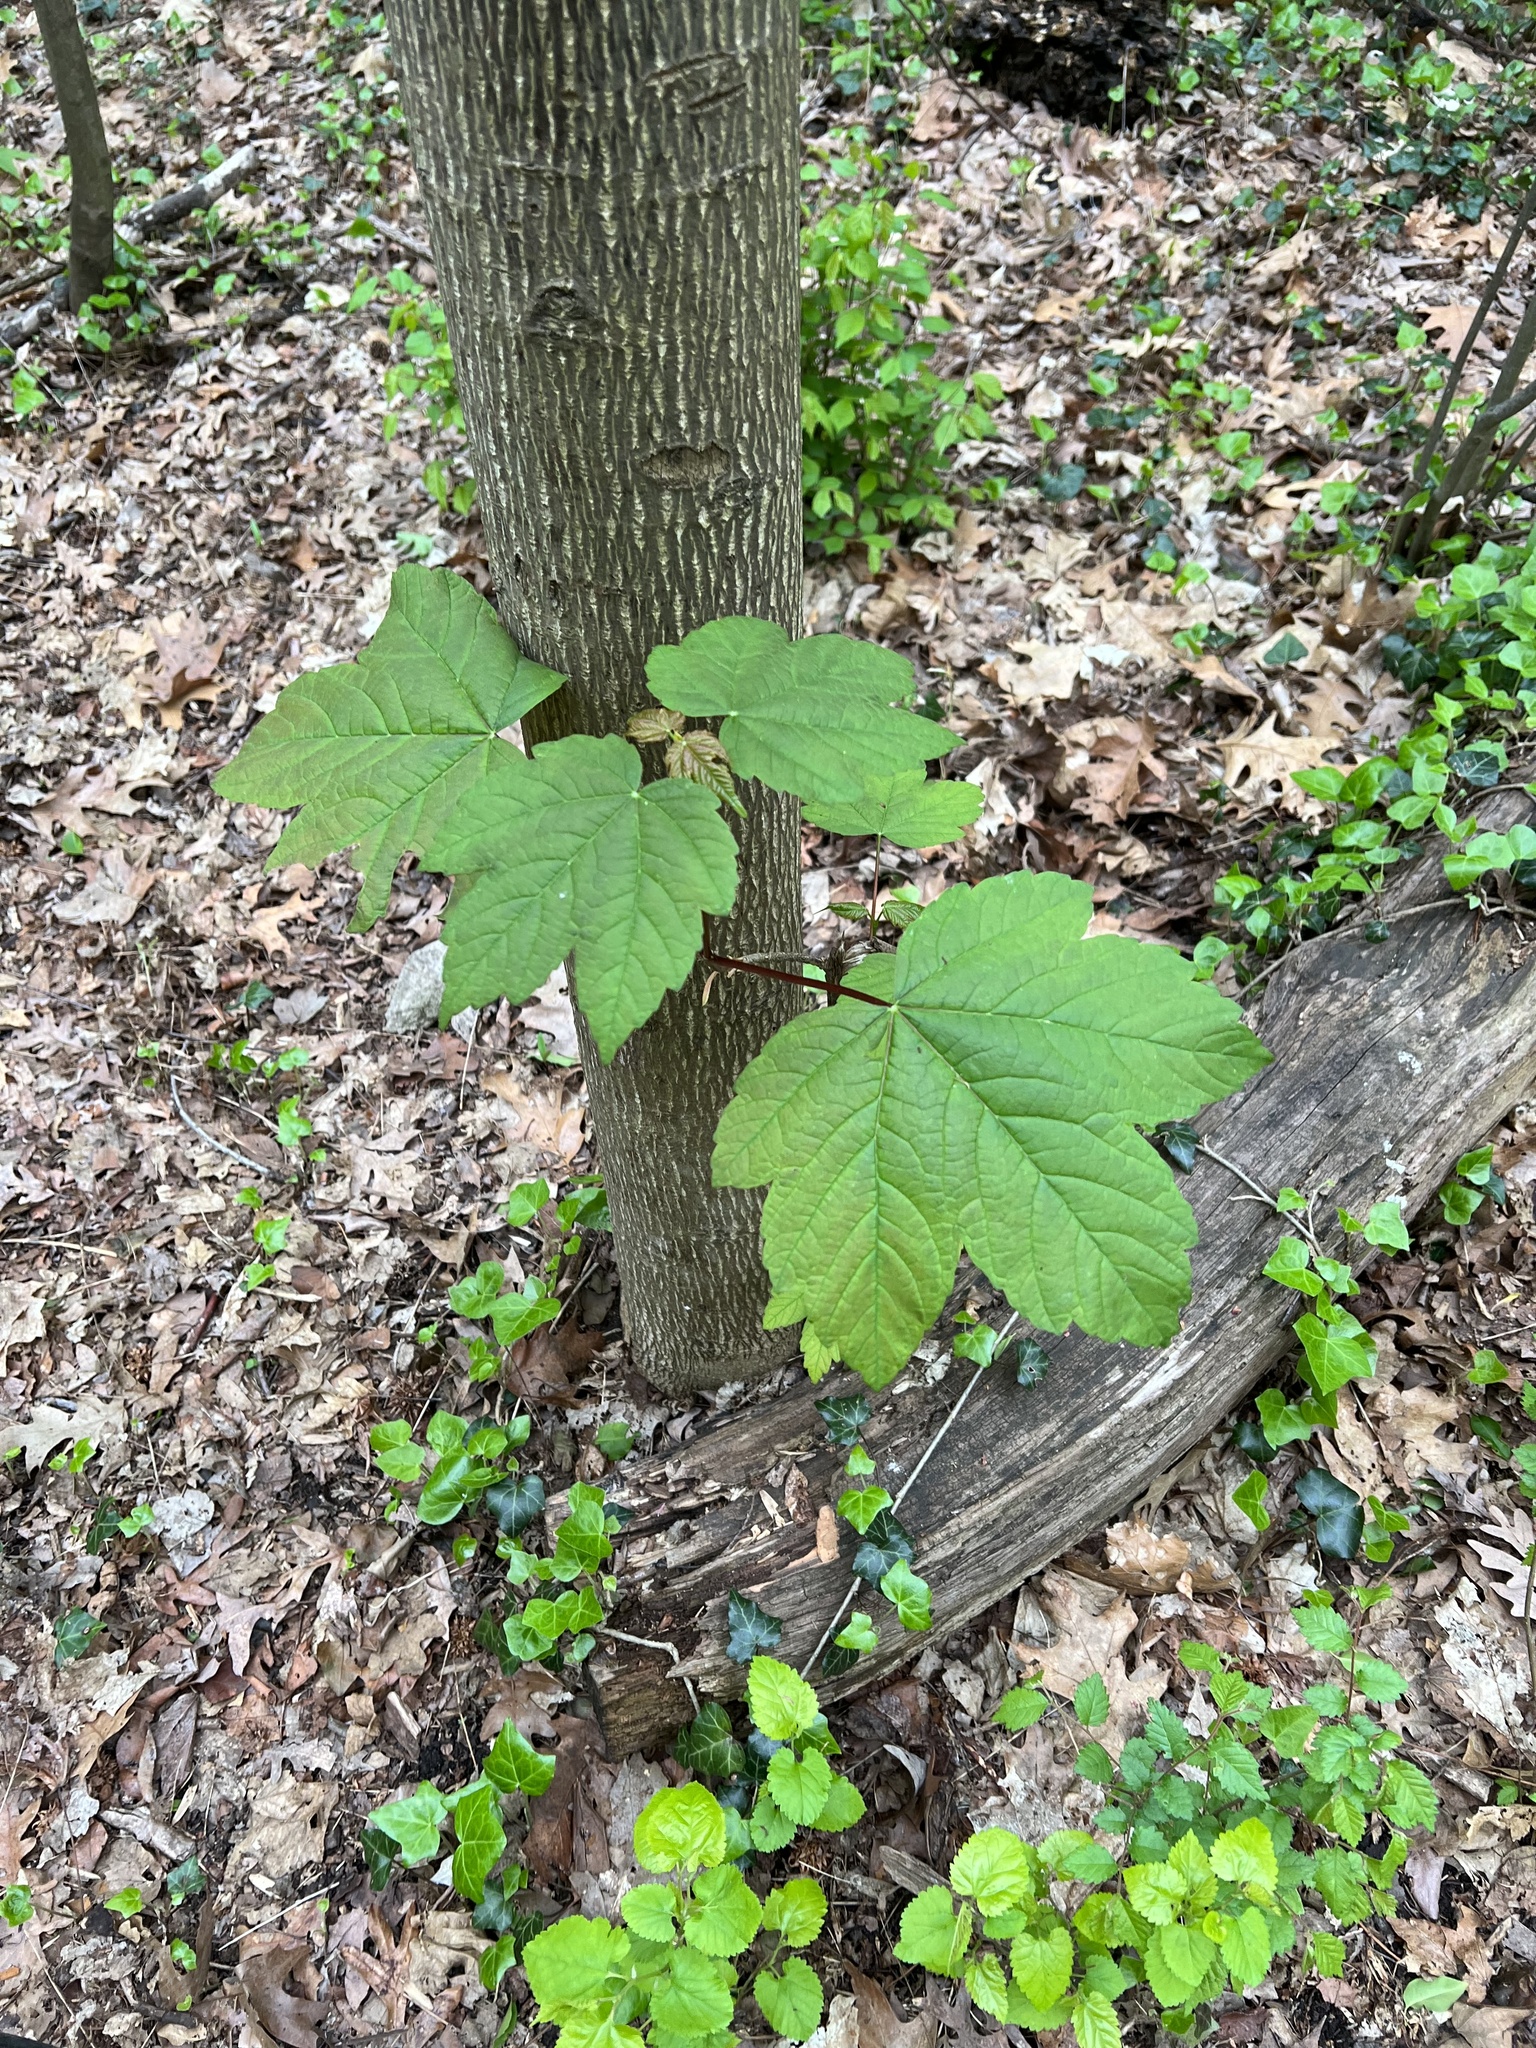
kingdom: Plantae
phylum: Tracheophyta
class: Magnoliopsida
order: Sapindales
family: Sapindaceae
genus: Acer
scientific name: Acer pseudoplatanus
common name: Sycamore
